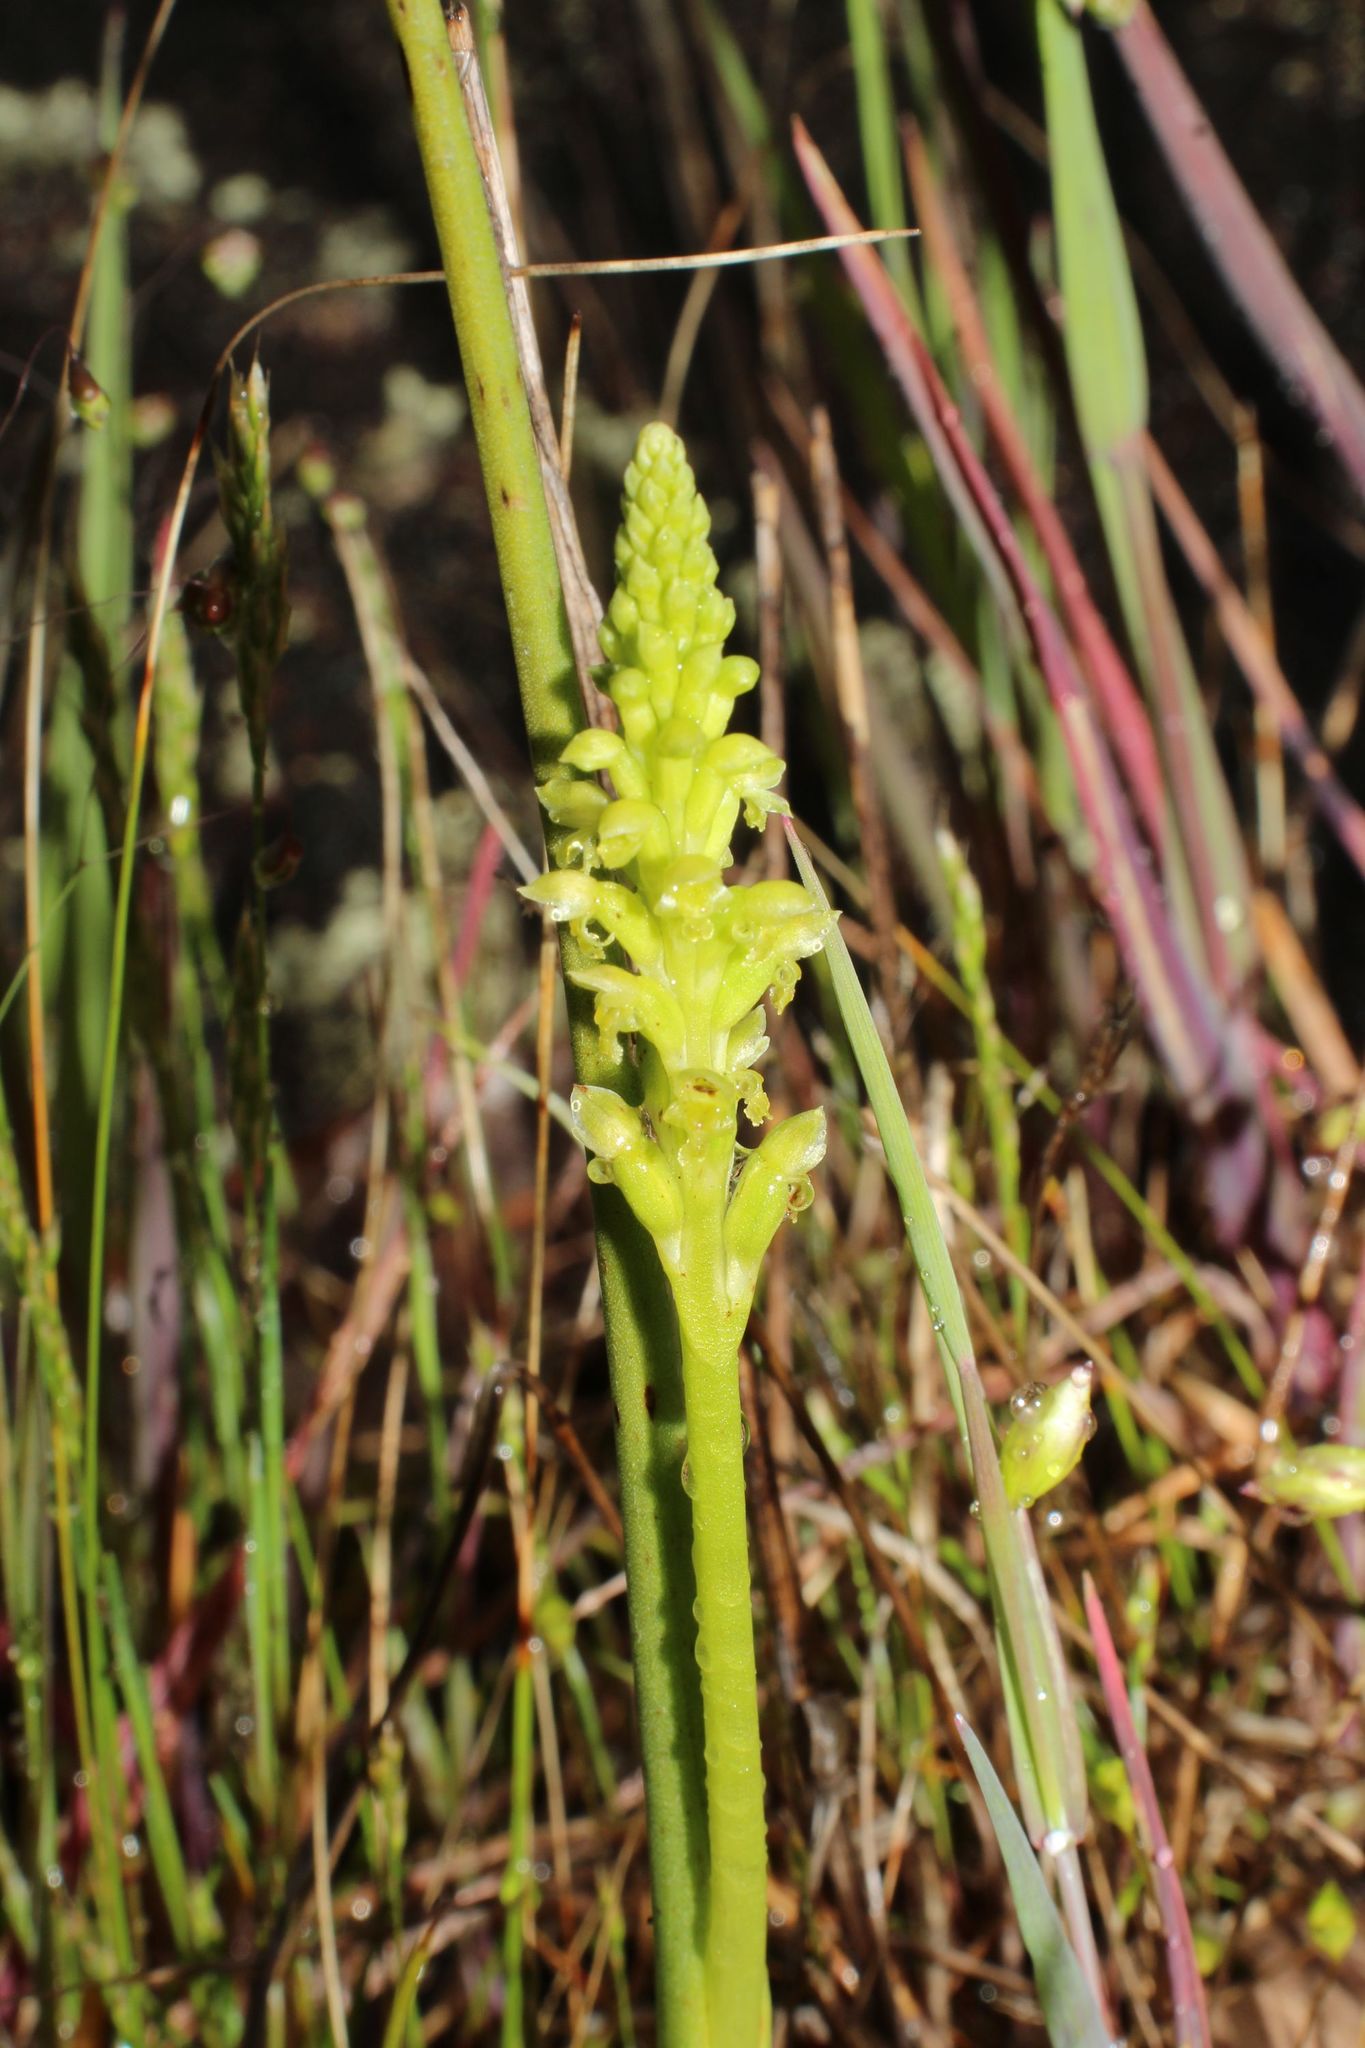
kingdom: Plantae
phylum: Tracheophyta
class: Liliopsida
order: Asparagales
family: Orchidaceae
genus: Microtis
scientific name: Microtis media
